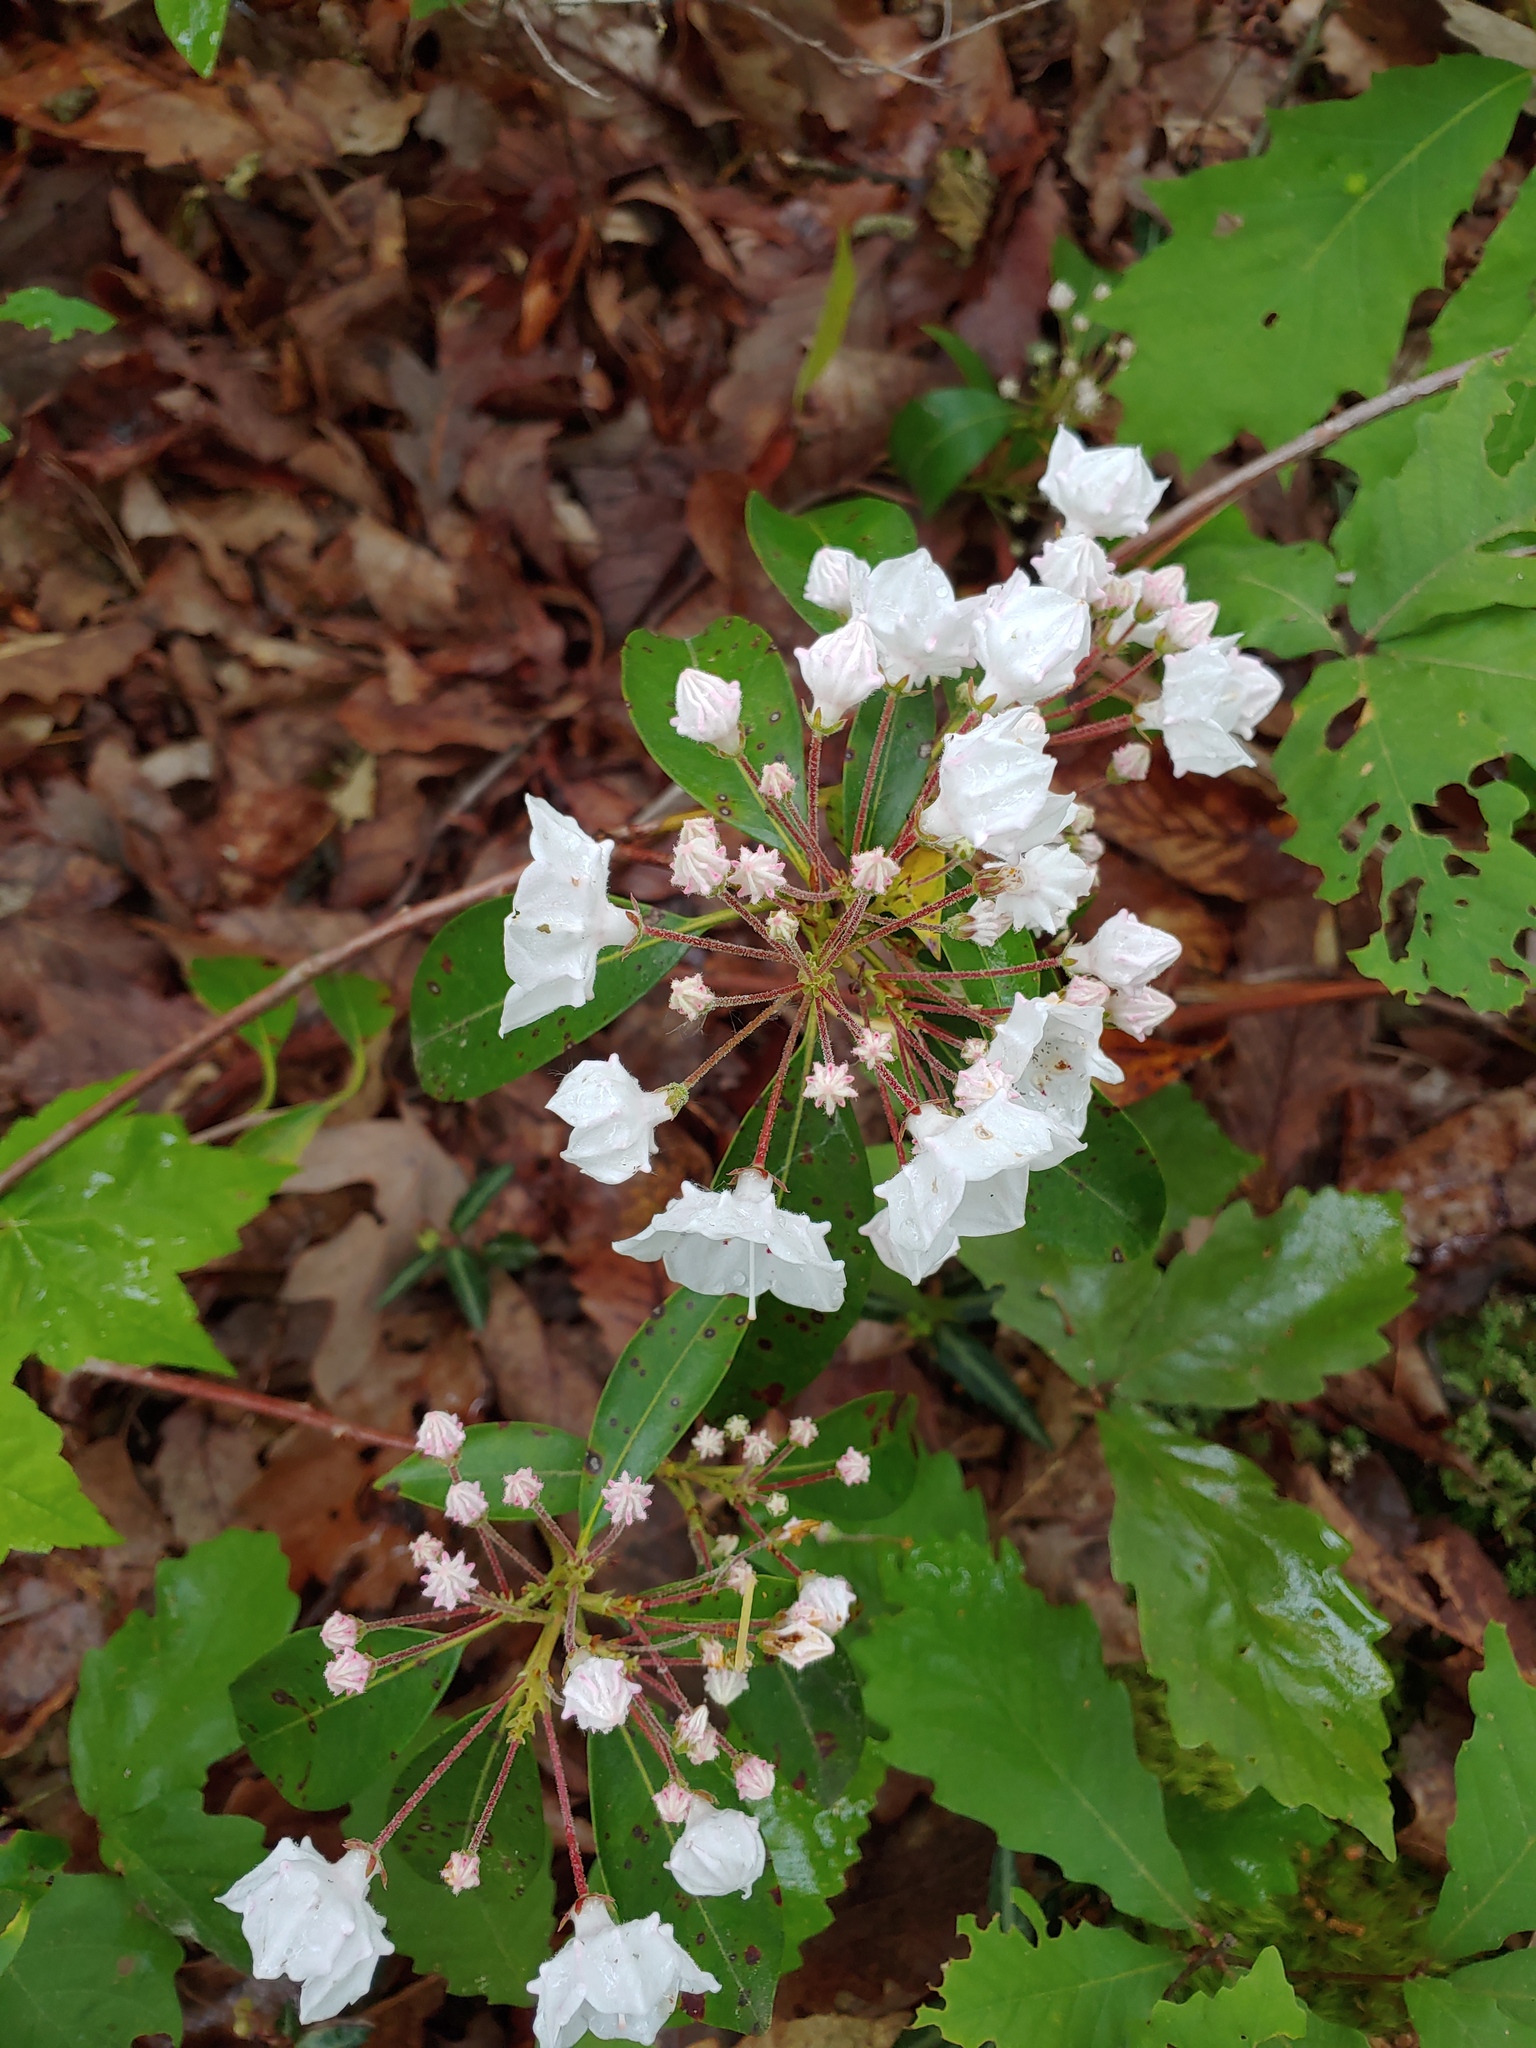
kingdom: Plantae
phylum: Tracheophyta
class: Magnoliopsida
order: Ericales
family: Ericaceae
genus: Kalmia
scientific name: Kalmia latifolia
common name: Mountain-laurel
